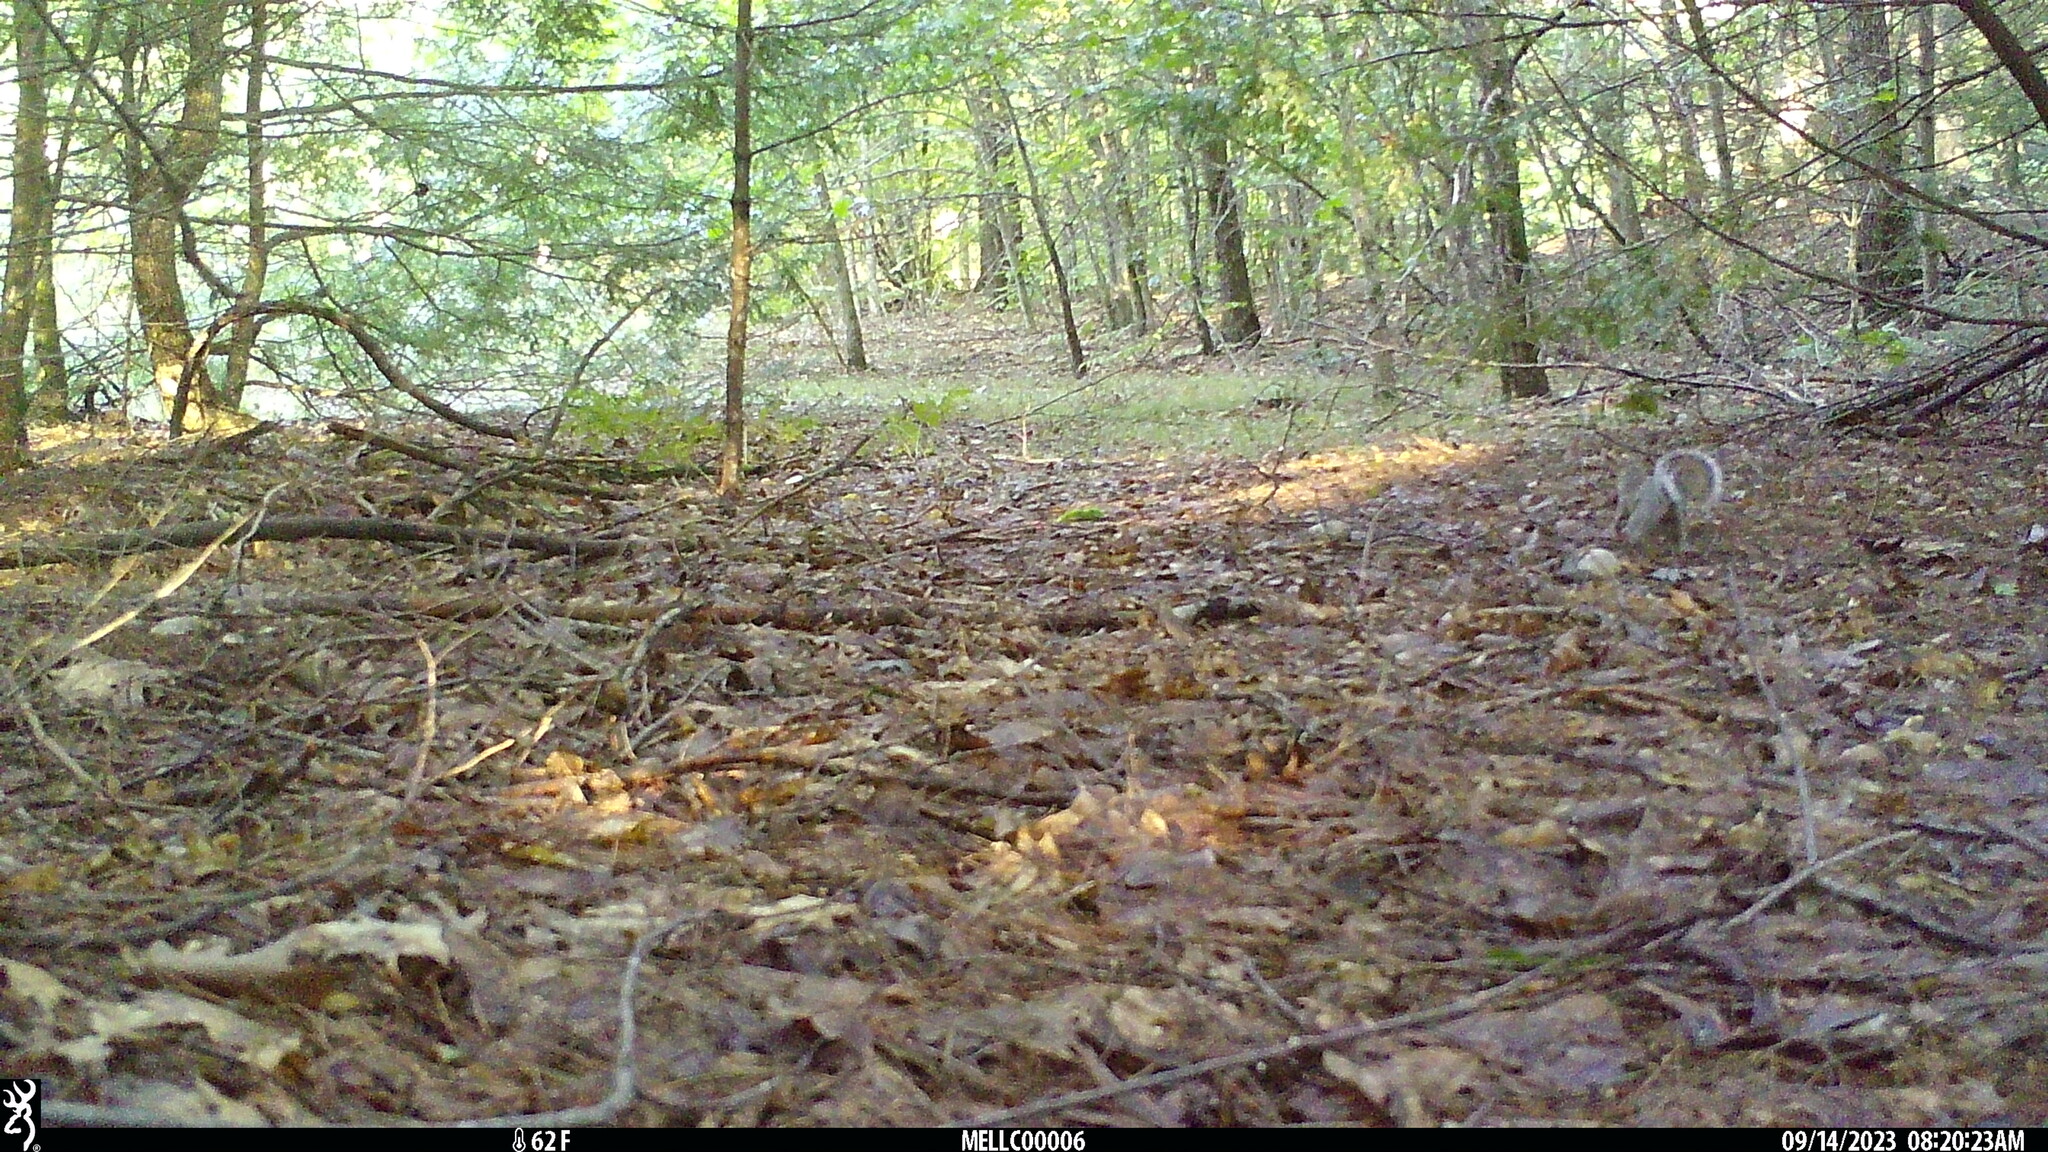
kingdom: Animalia
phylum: Chordata
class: Mammalia
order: Rodentia
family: Sciuridae
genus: Sciurus
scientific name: Sciurus carolinensis
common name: Eastern gray squirrel
